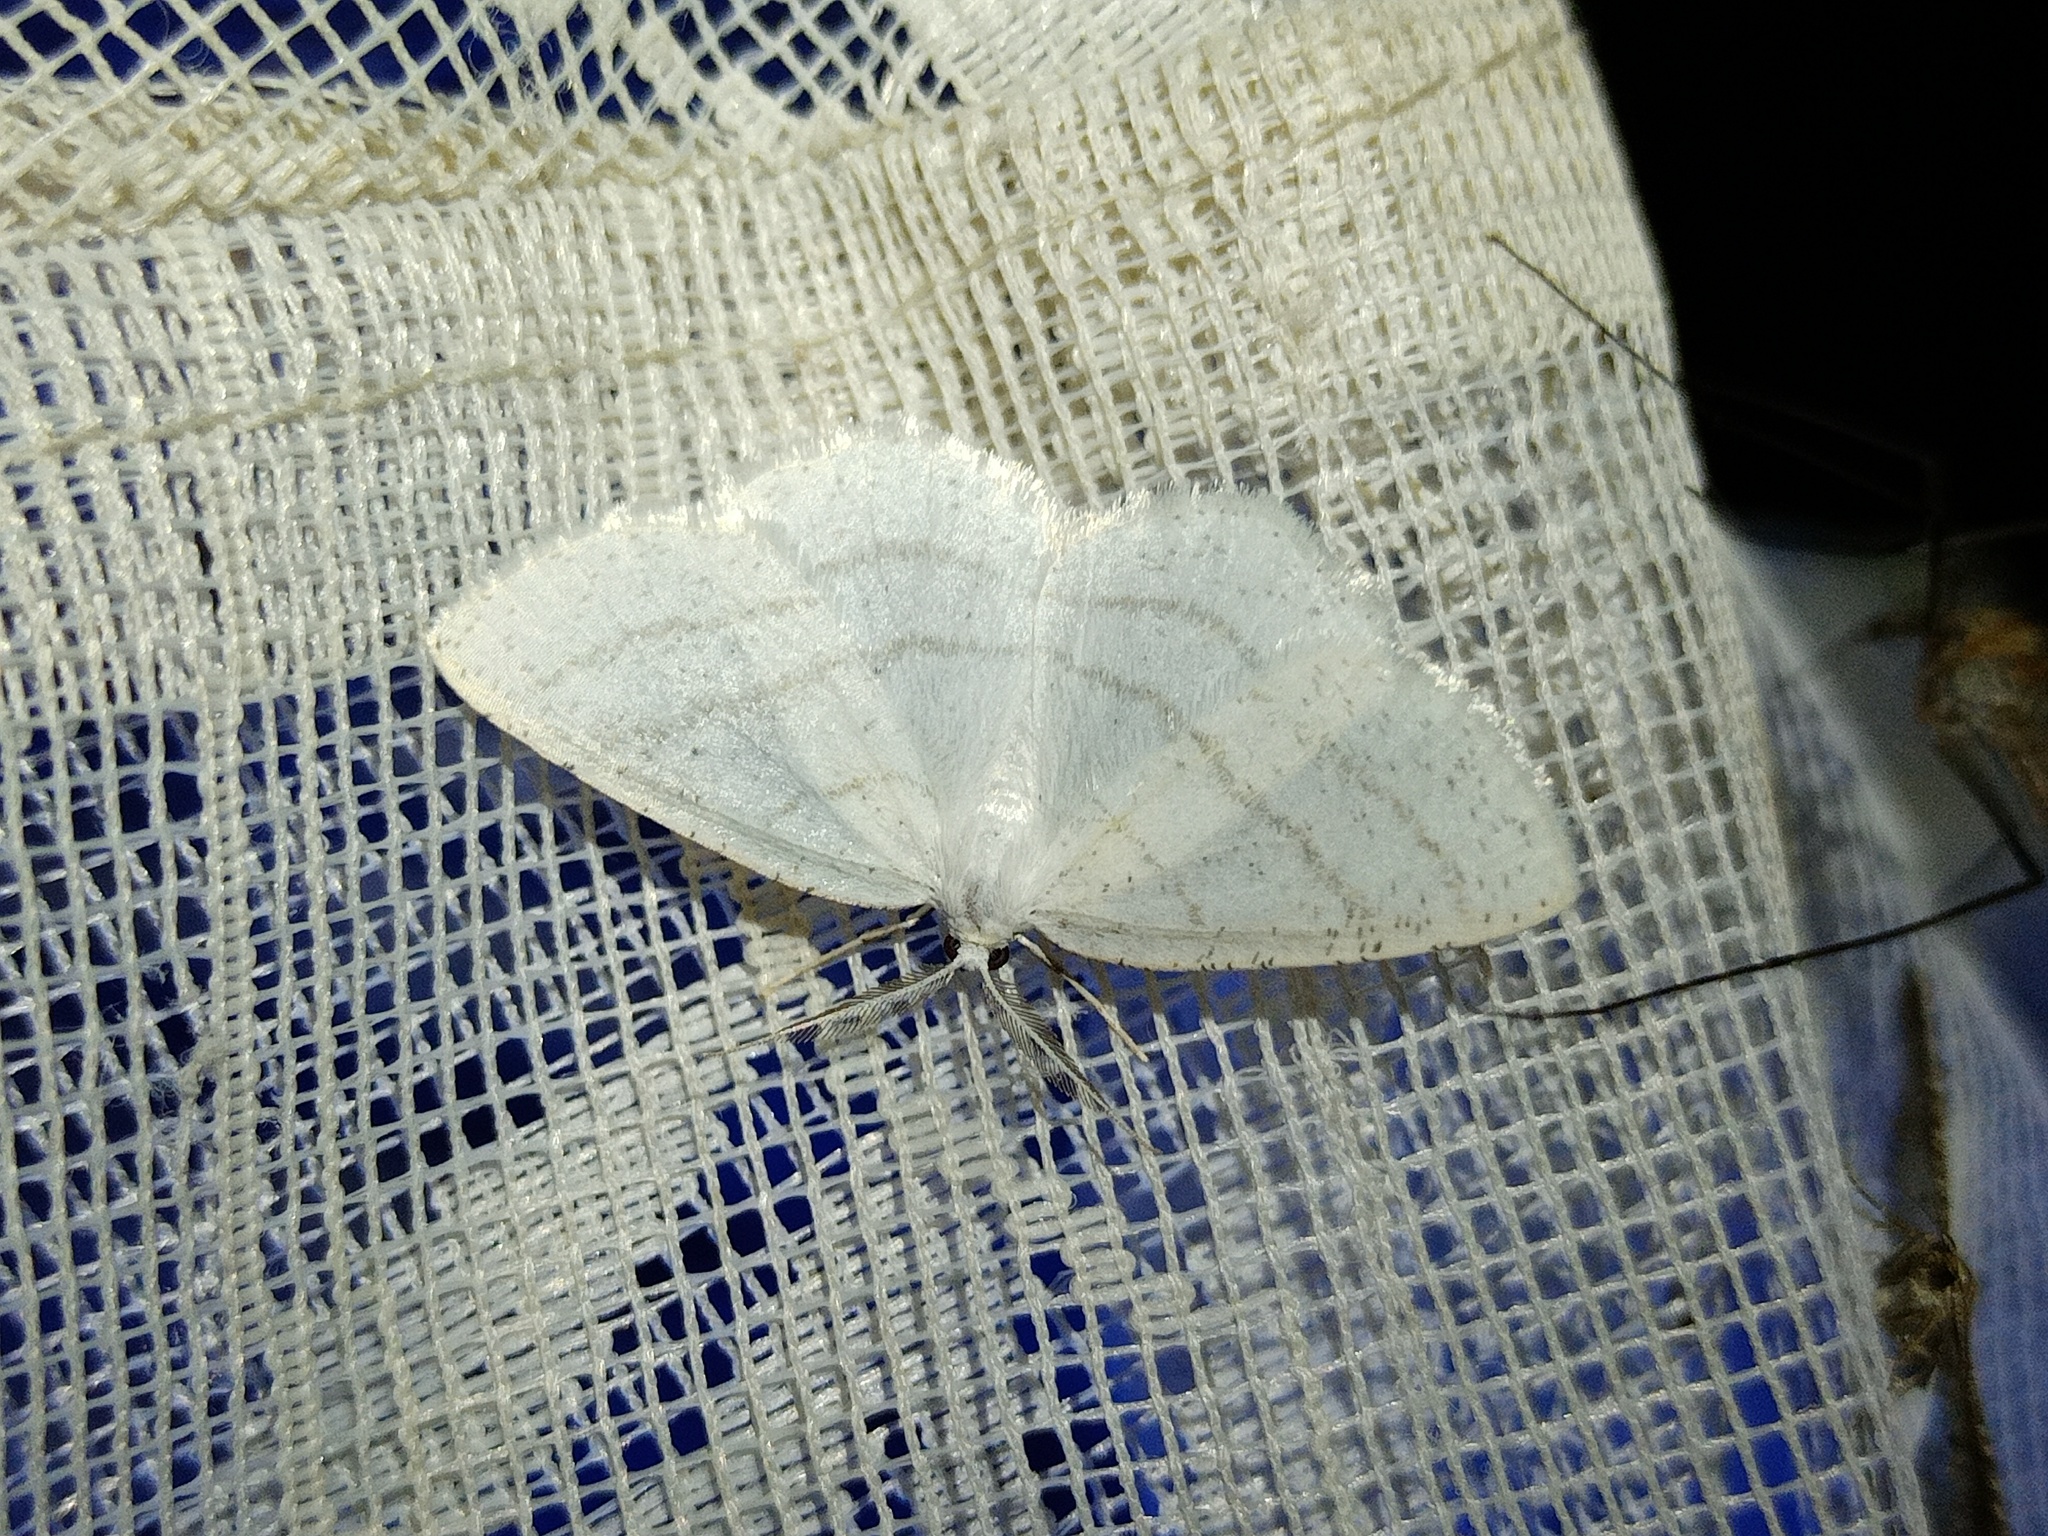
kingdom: Animalia
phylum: Arthropoda
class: Insecta
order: Lepidoptera
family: Geometridae
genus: Cabera
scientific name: Cabera pusaria
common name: Common white wave
